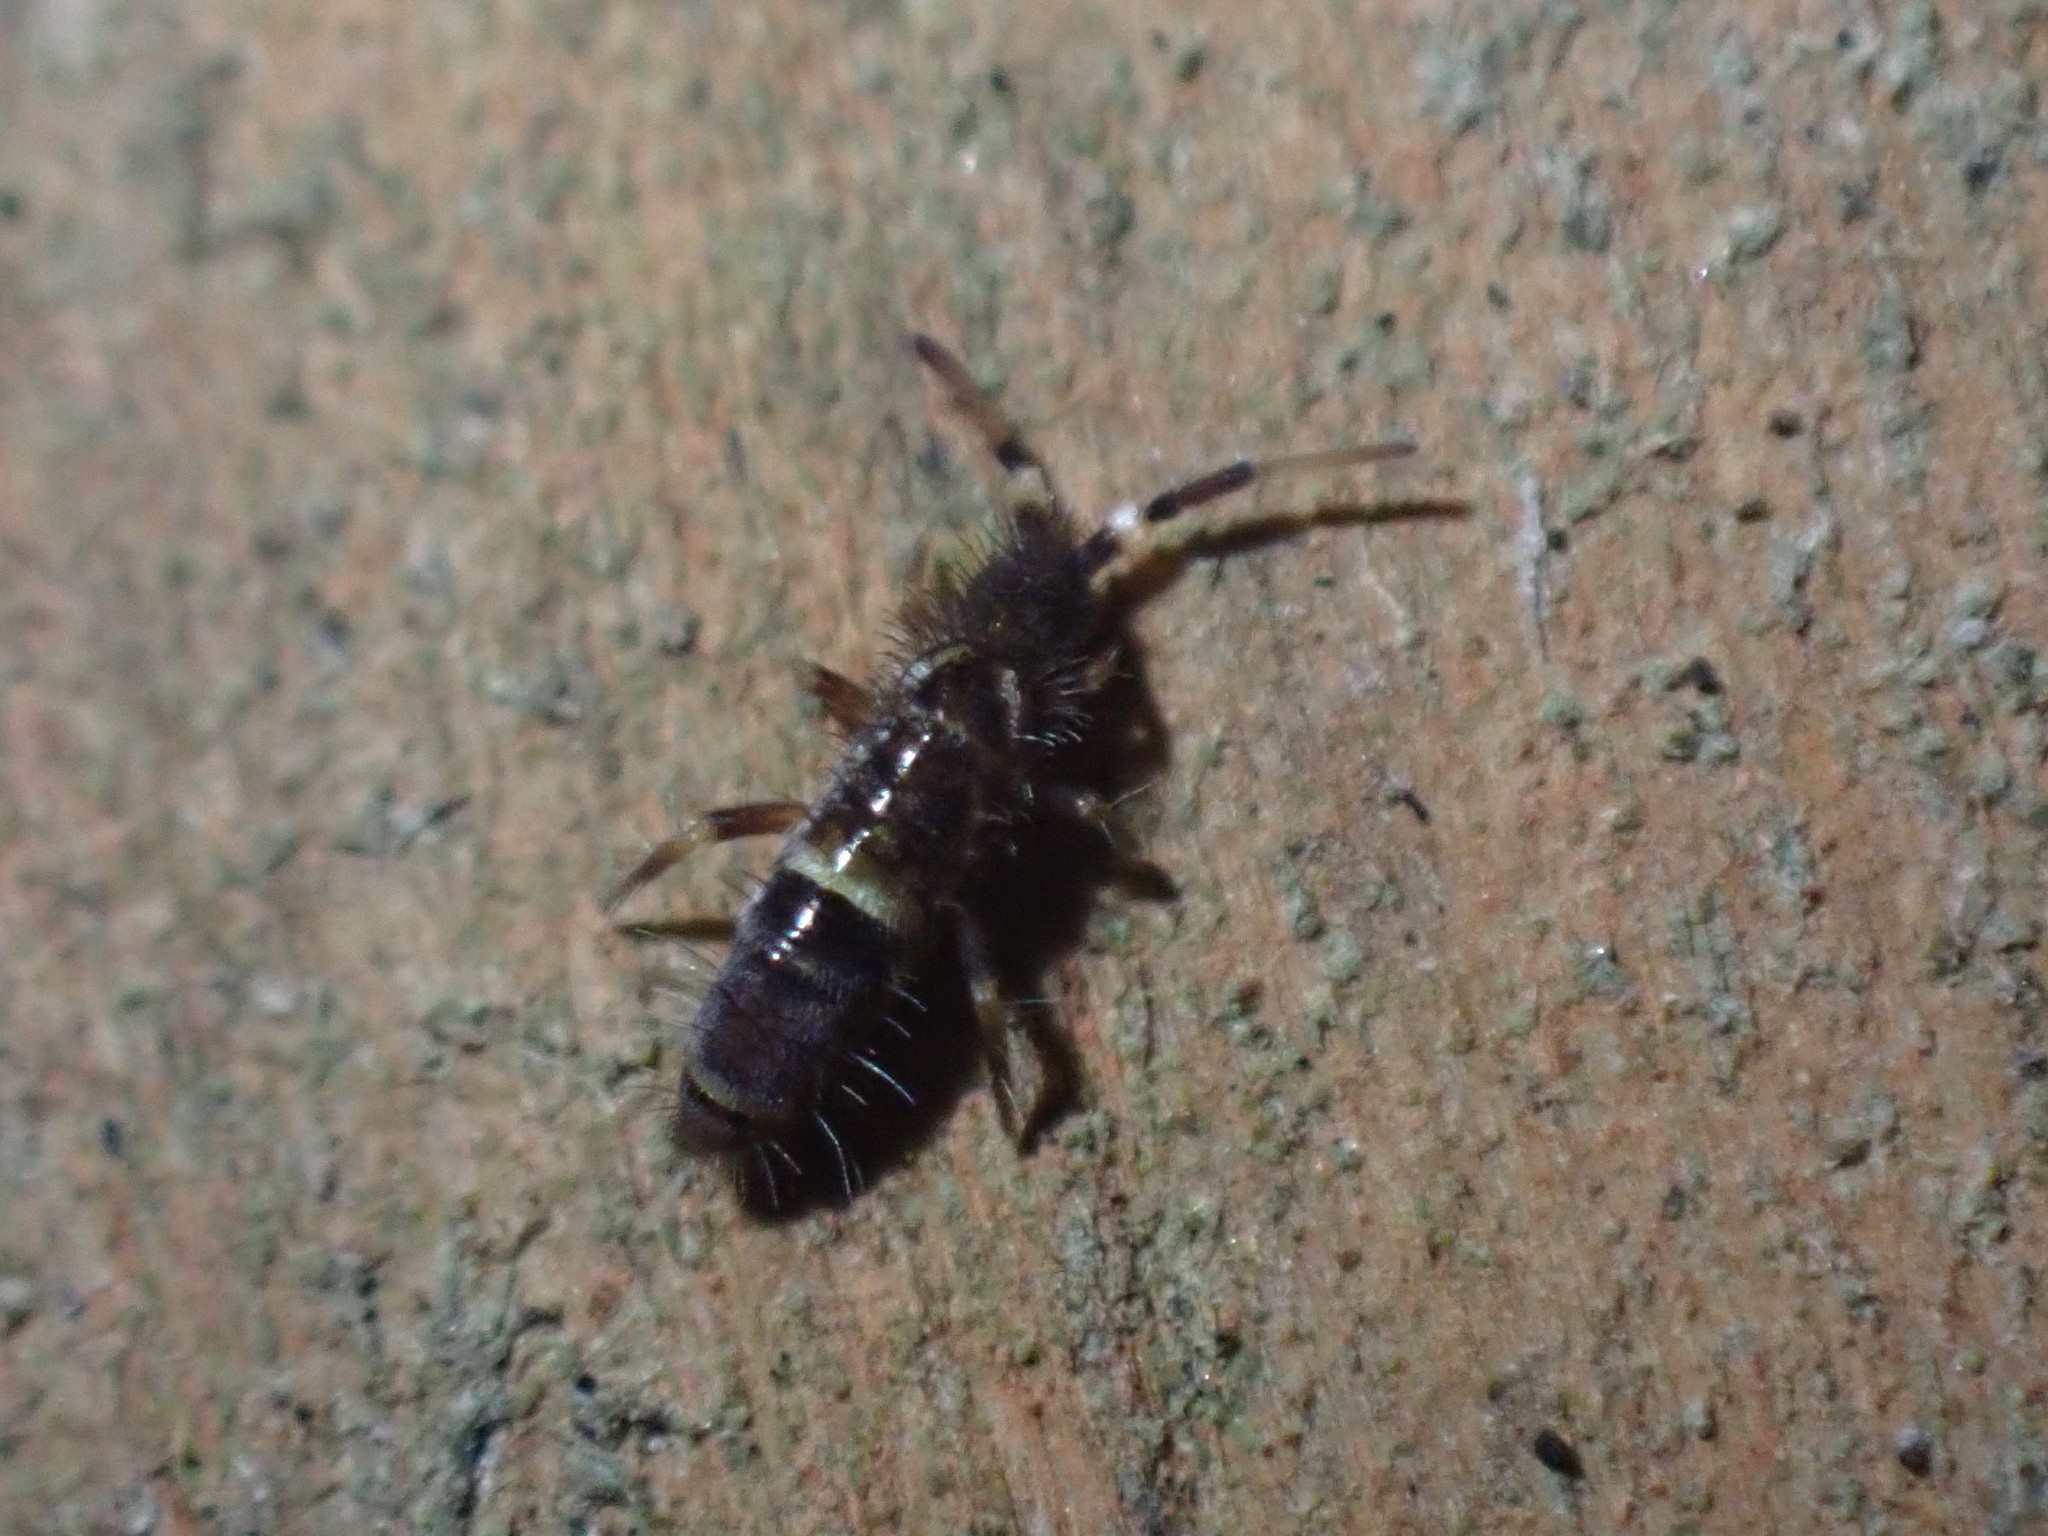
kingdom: Animalia
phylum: Arthropoda
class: Collembola
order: Entomobryomorpha
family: Orchesellidae
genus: Orchesella
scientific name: Orchesella cincta
